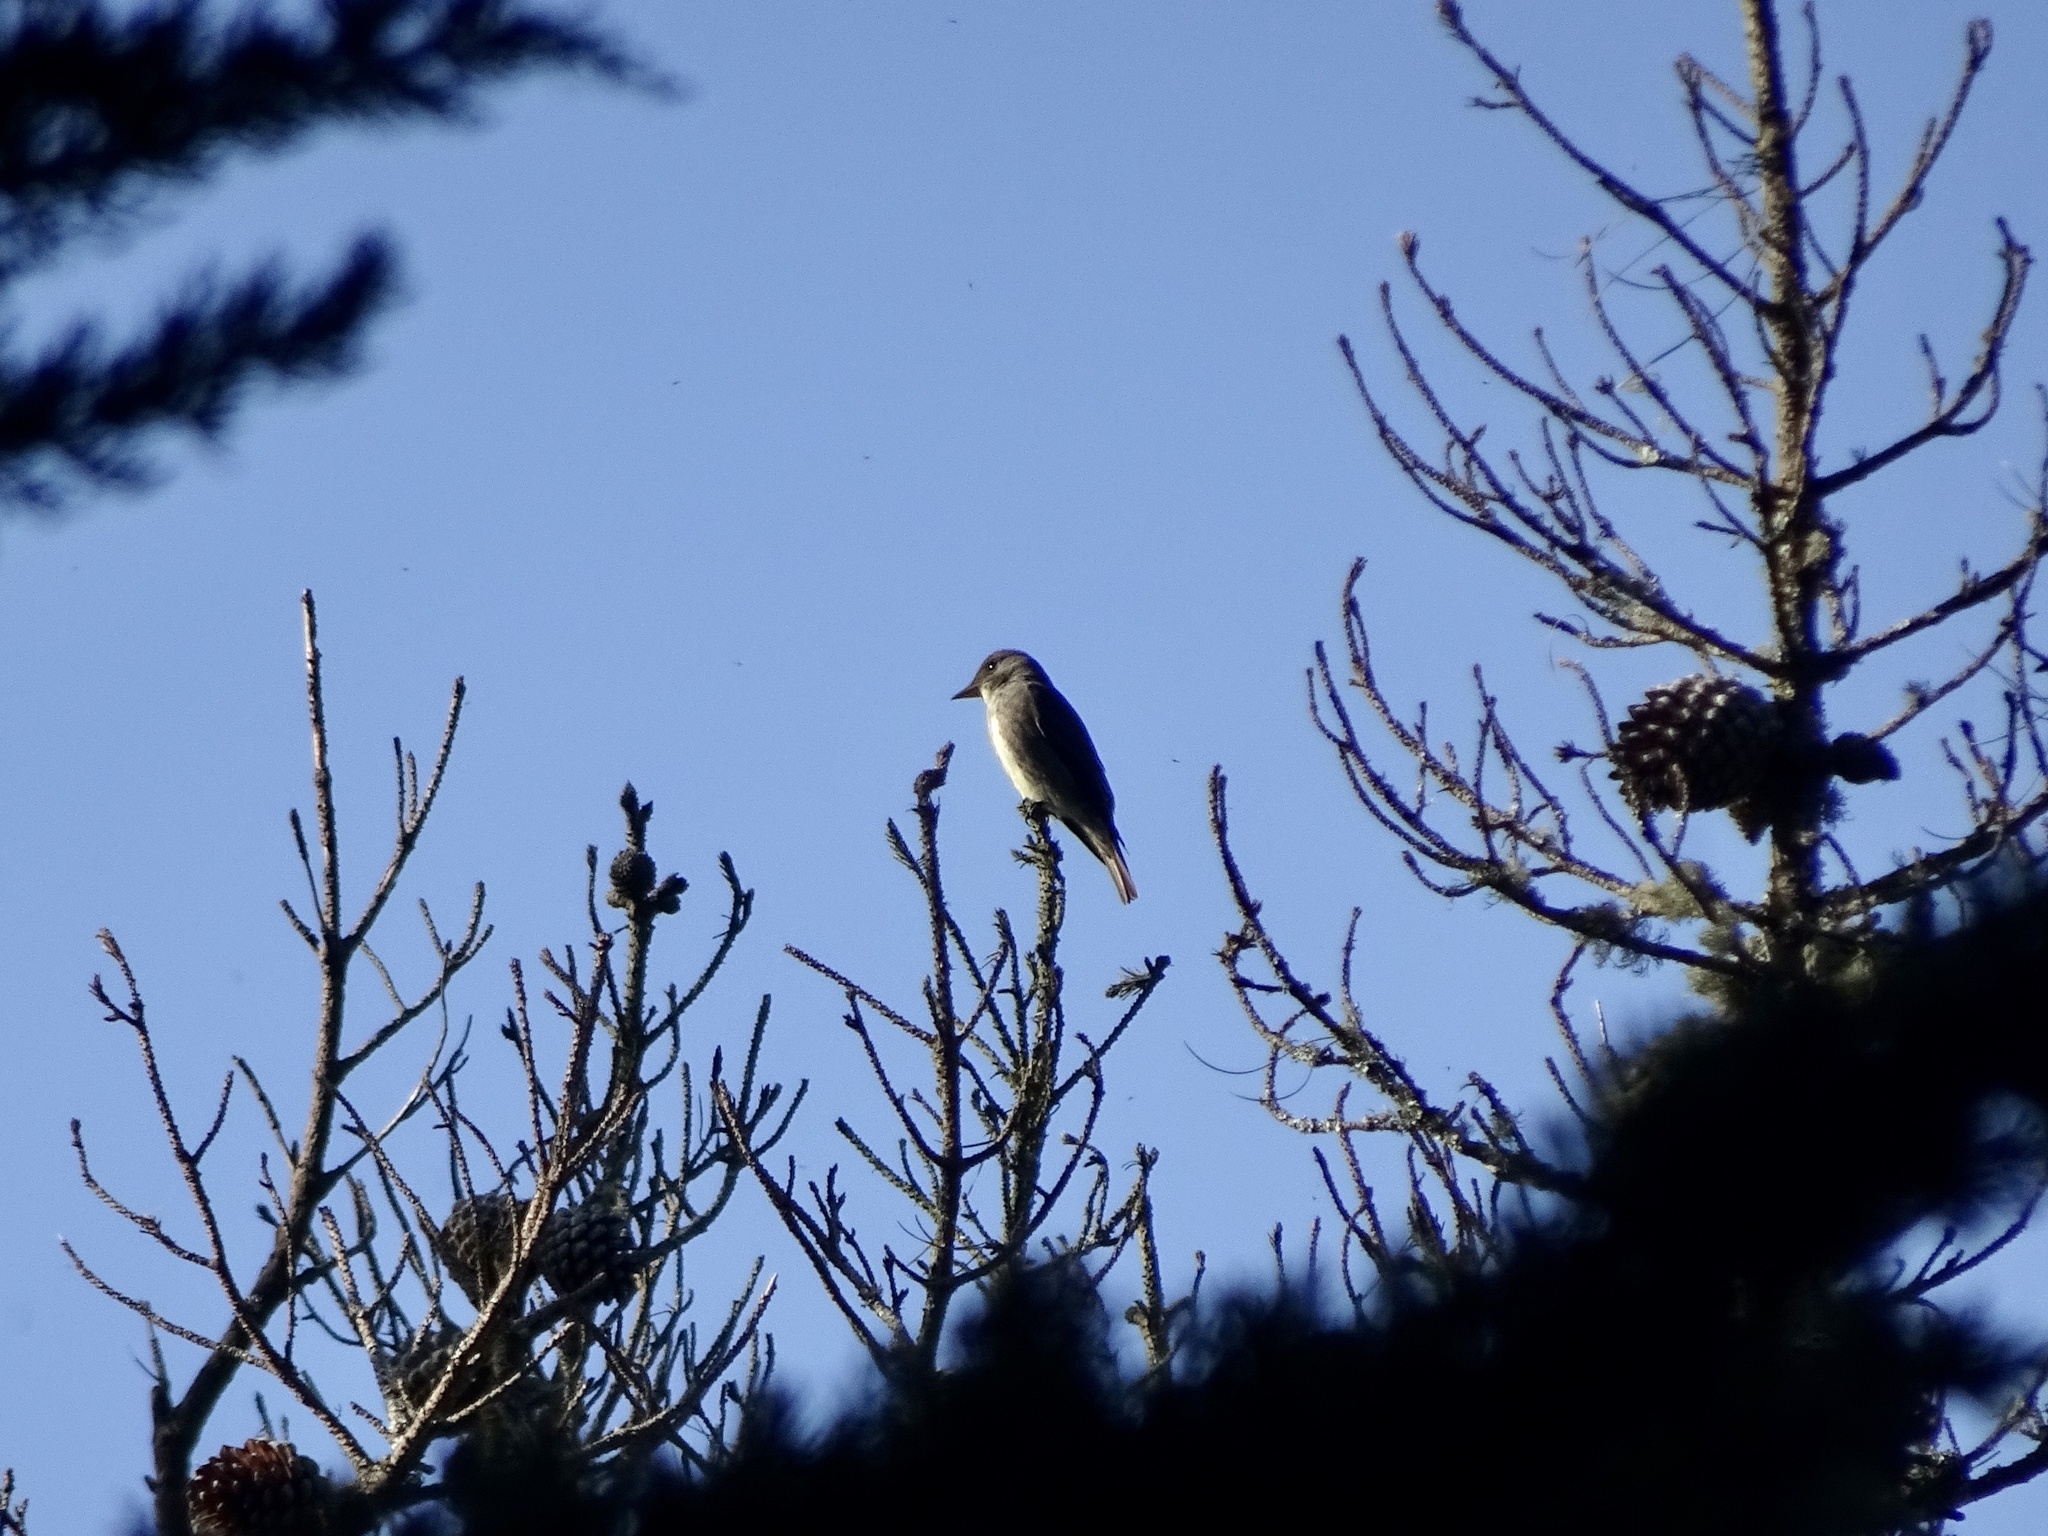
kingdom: Animalia
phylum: Chordata
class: Aves
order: Passeriformes
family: Tyrannidae
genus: Contopus
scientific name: Contopus cooperi
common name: Olive-sided flycatcher
